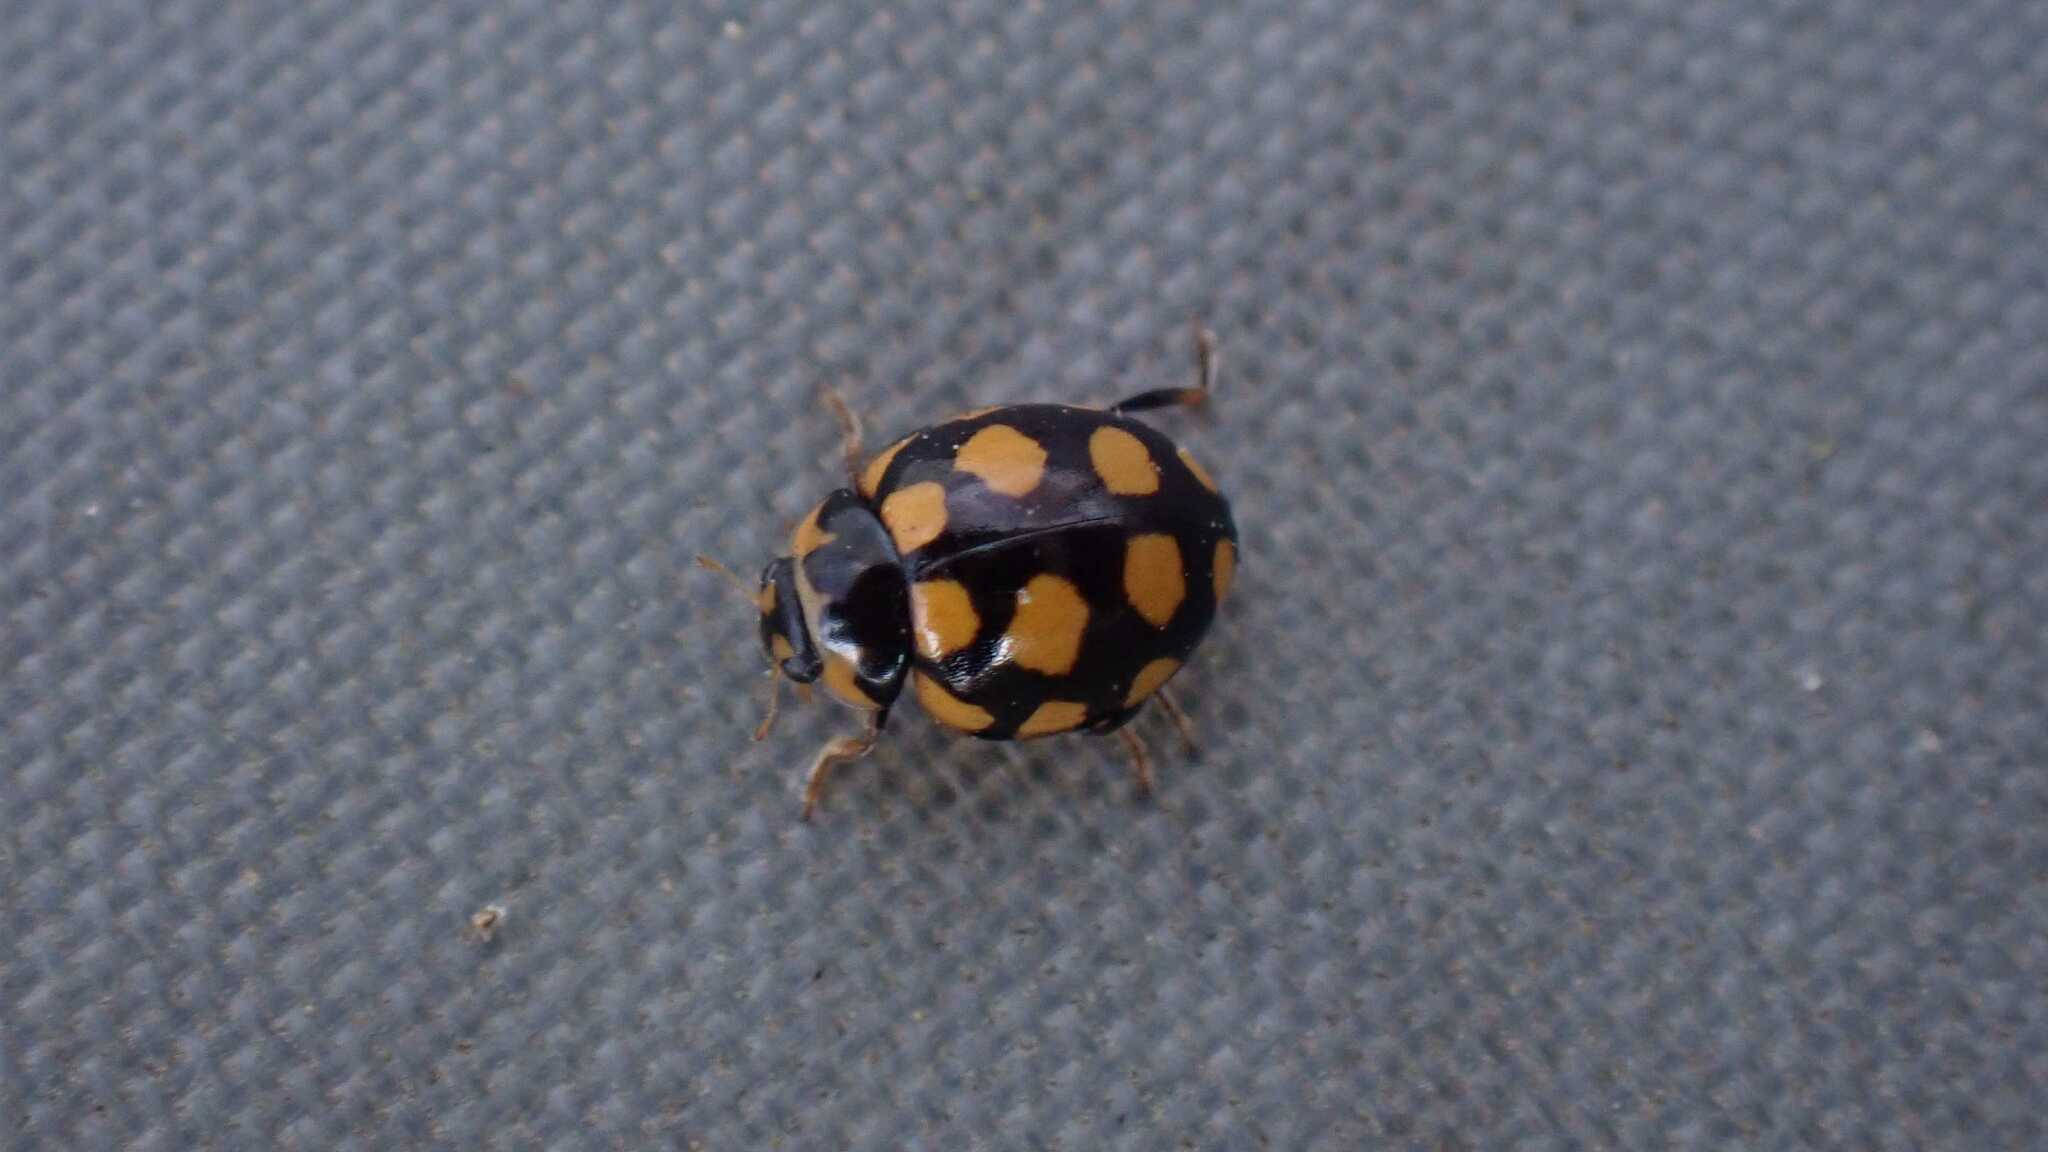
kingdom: Animalia
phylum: Arthropoda
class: Insecta
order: Coleoptera
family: Coccinellidae
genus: Coccinula
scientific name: Coccinula quatuordecimpustulata
